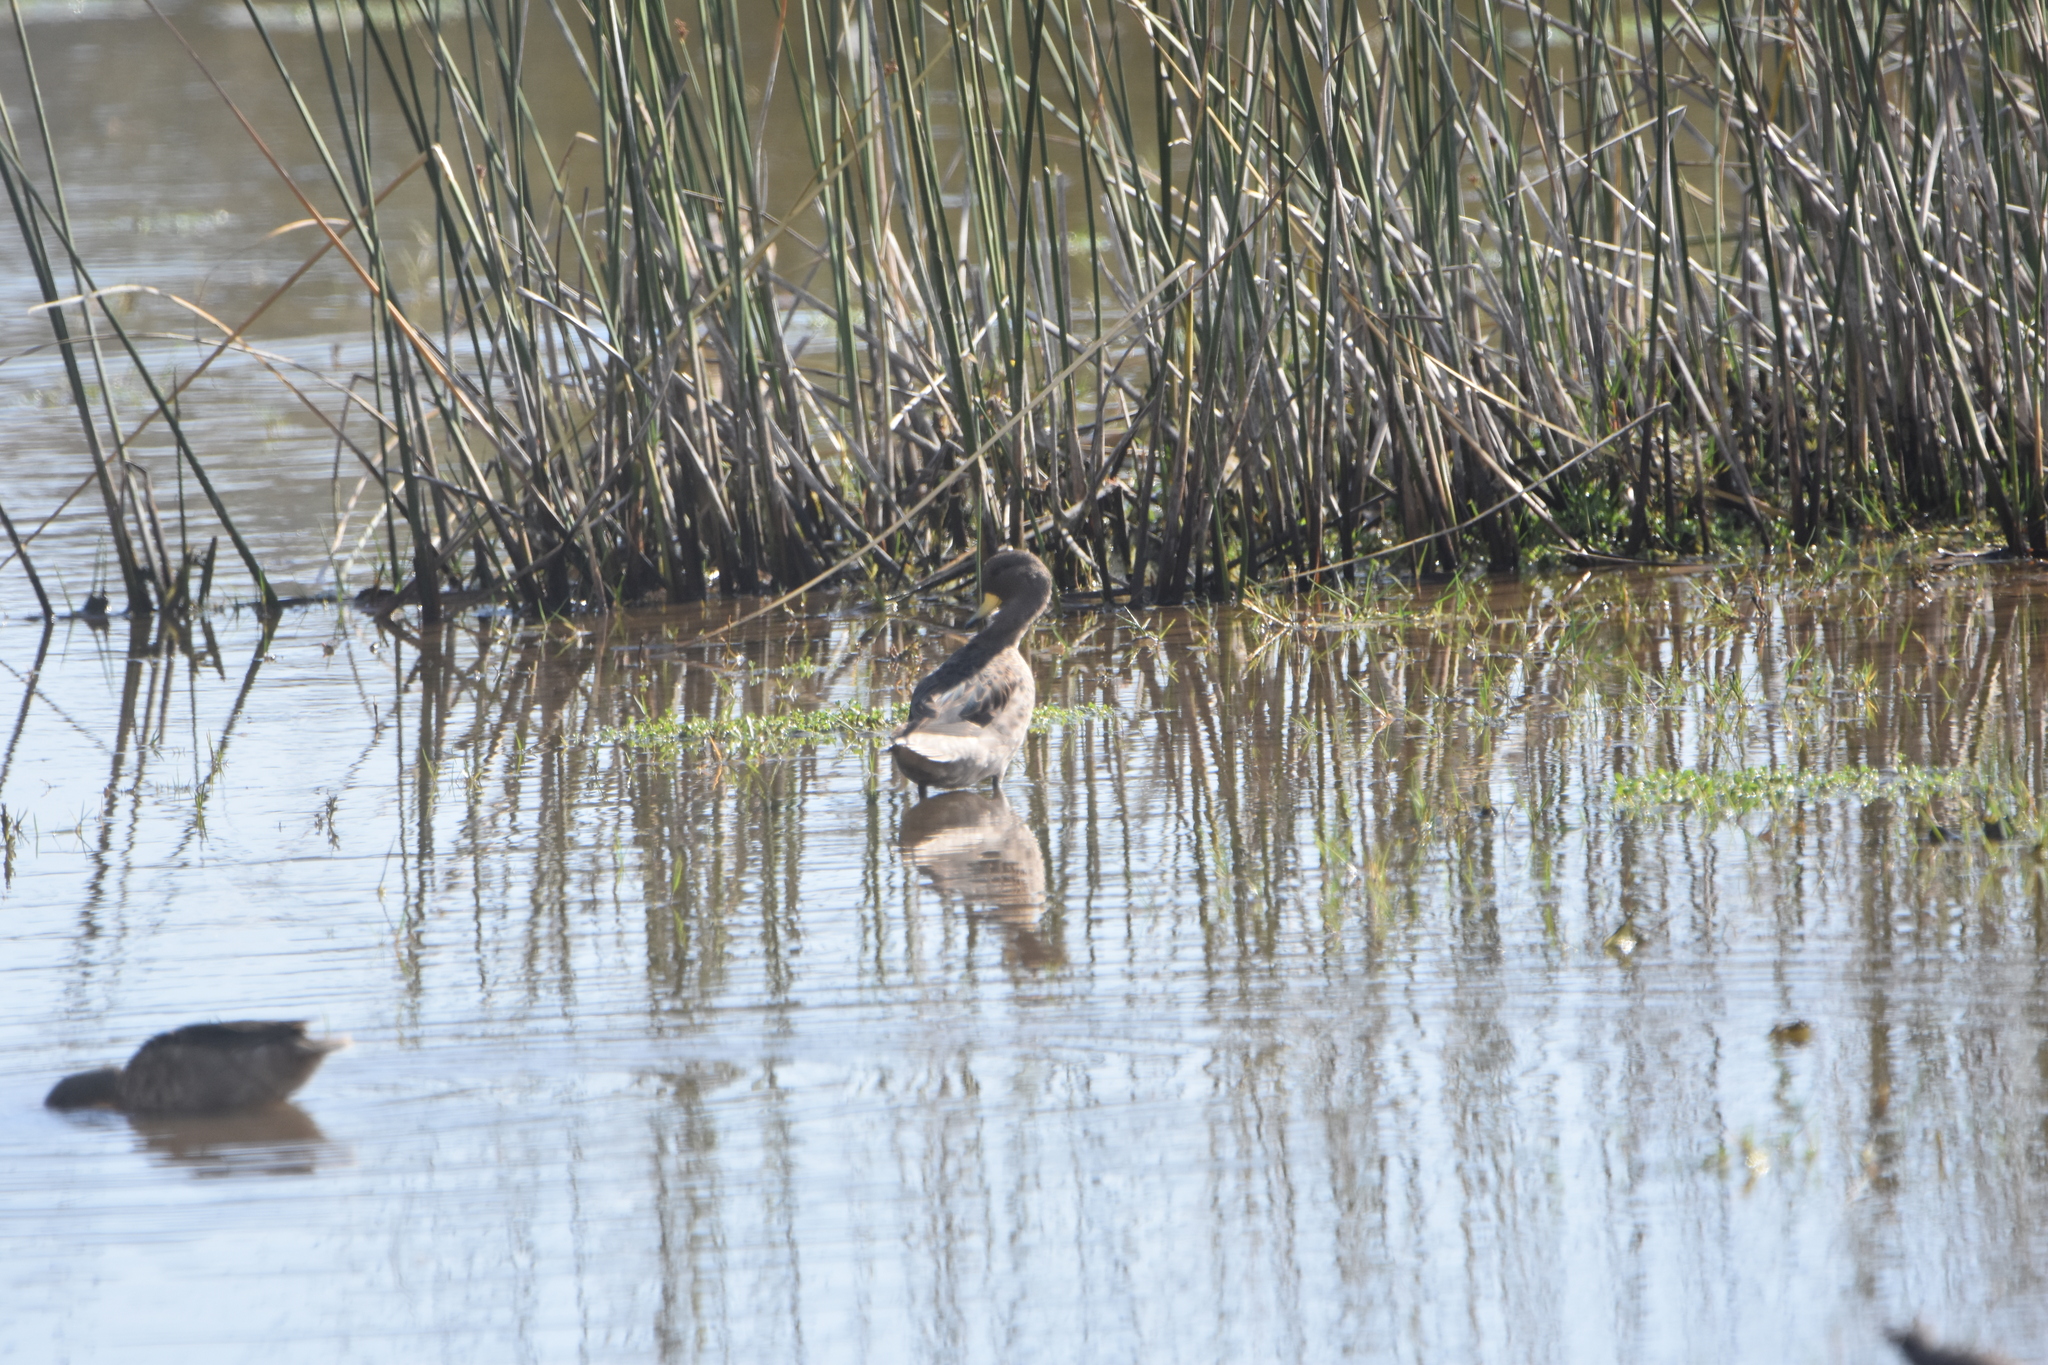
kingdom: Animalia
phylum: Chordata
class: Aves
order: Anseriformes
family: Anatidae
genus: Anas
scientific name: Anas flavirostris
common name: Yellow-billed teal
